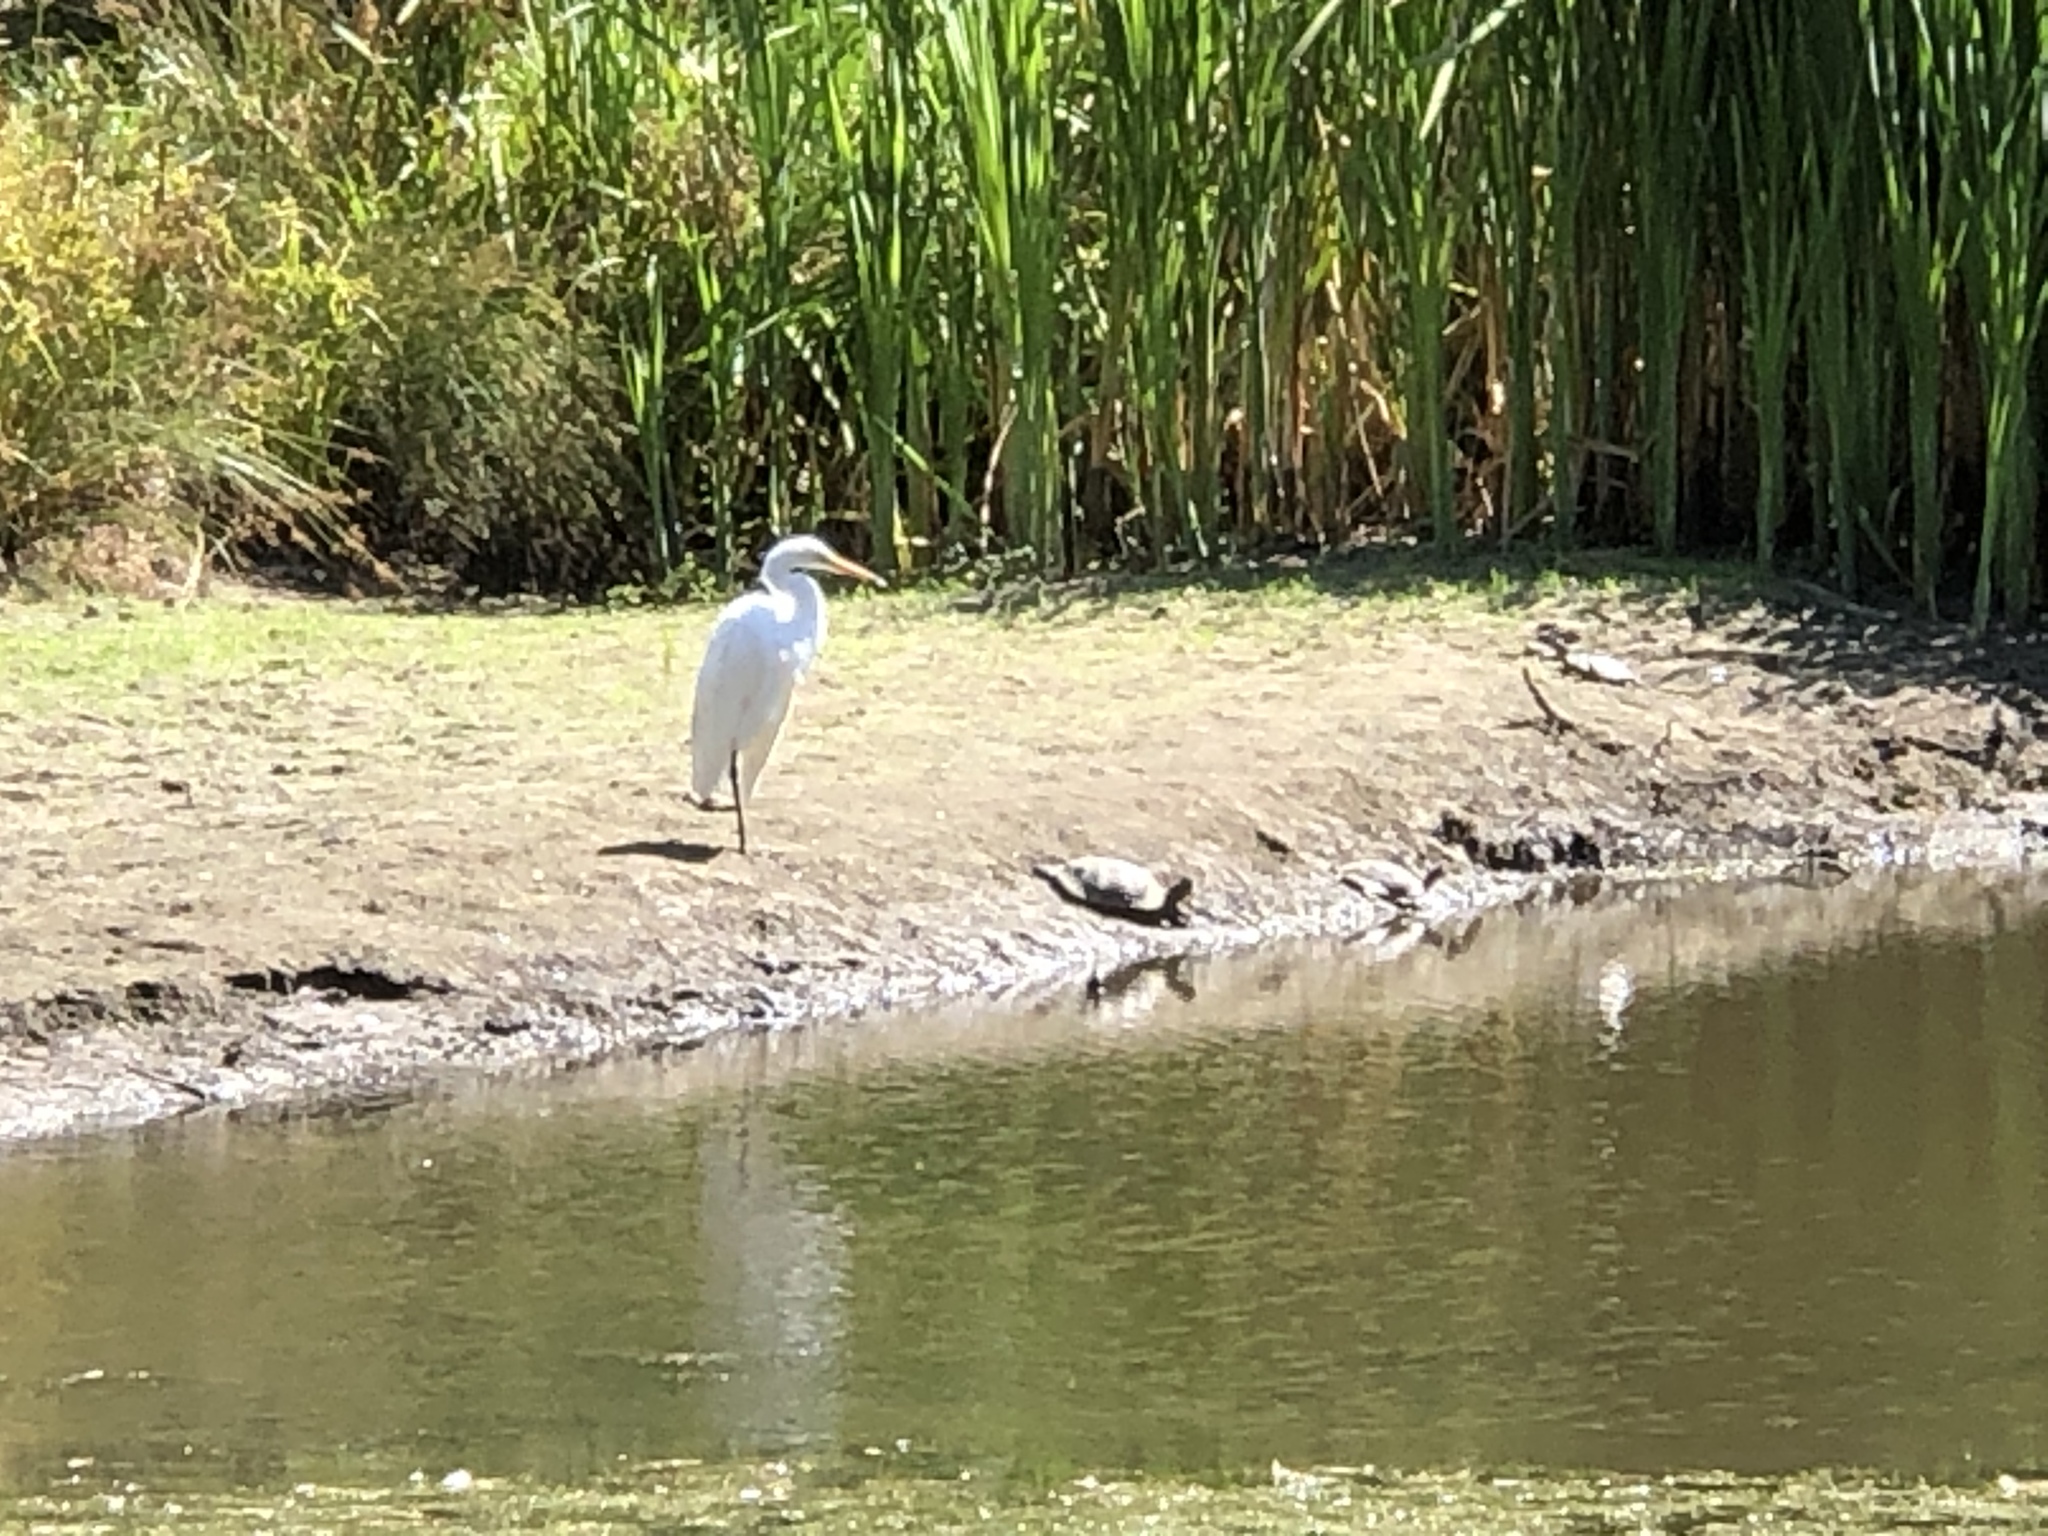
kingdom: Animalia
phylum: Chordata
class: Aves
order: Pelecaniformes
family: Ardeidae
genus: Ardea
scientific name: Ardea alba
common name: Great egret
